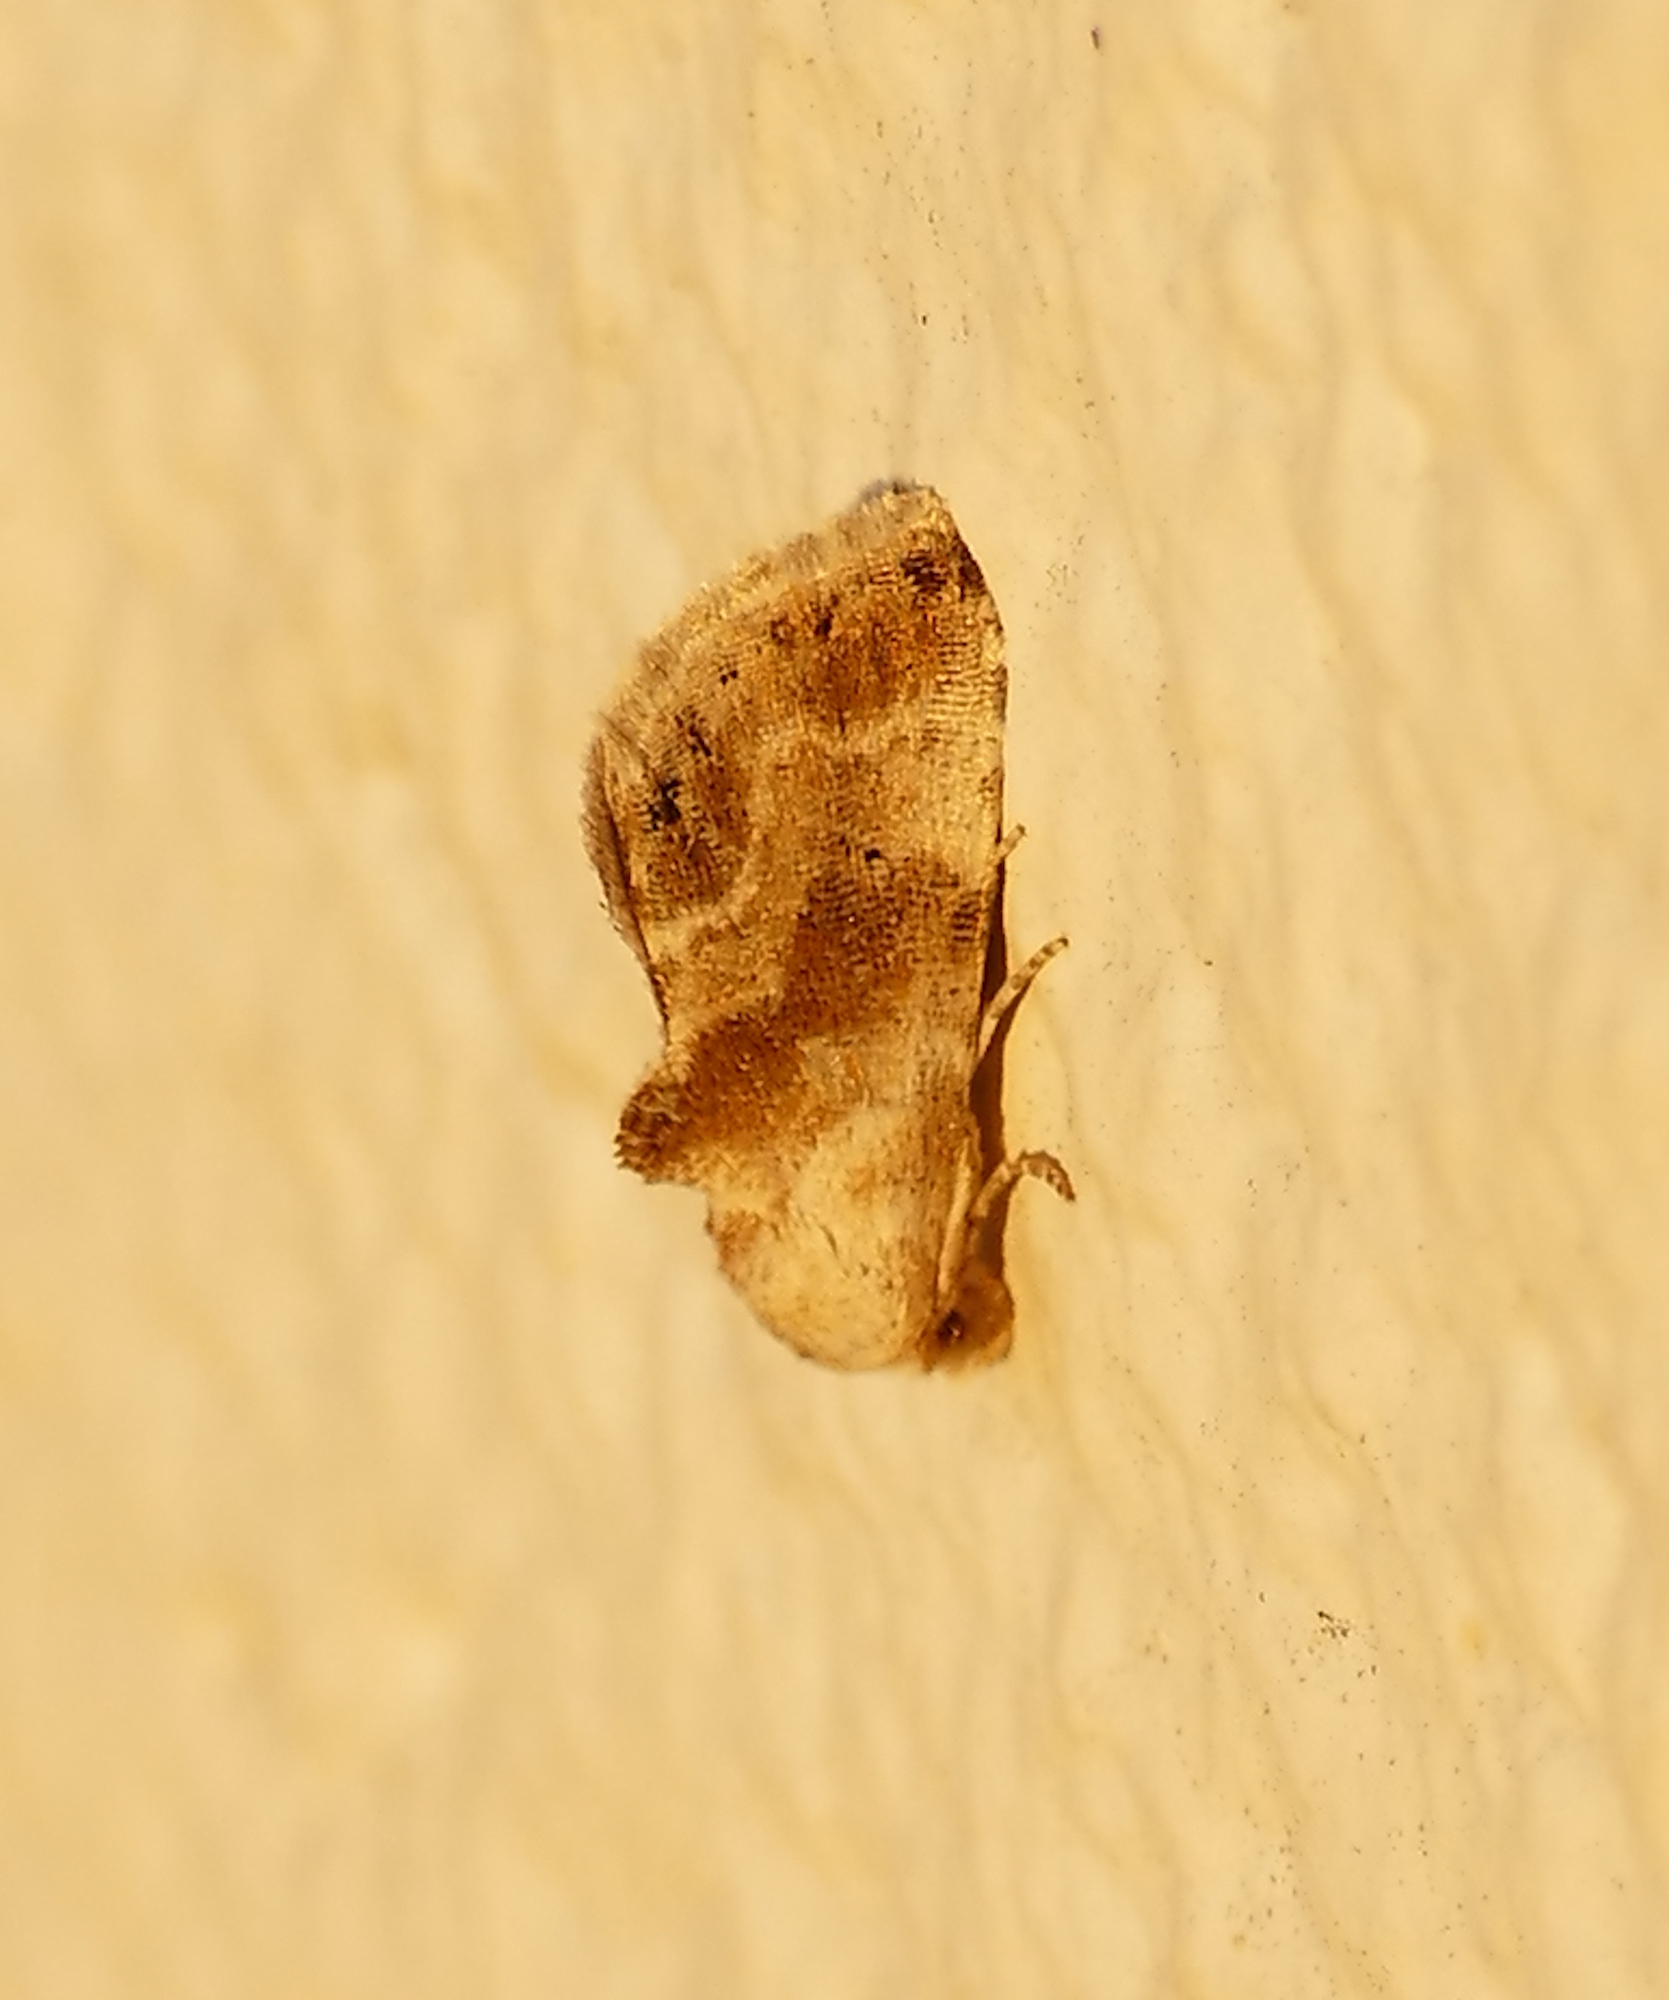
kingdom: Animalia
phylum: Arthropoda
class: Insecta
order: Lepidoptera
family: Noctuidae
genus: Eublemma
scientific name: Eublemma minima
